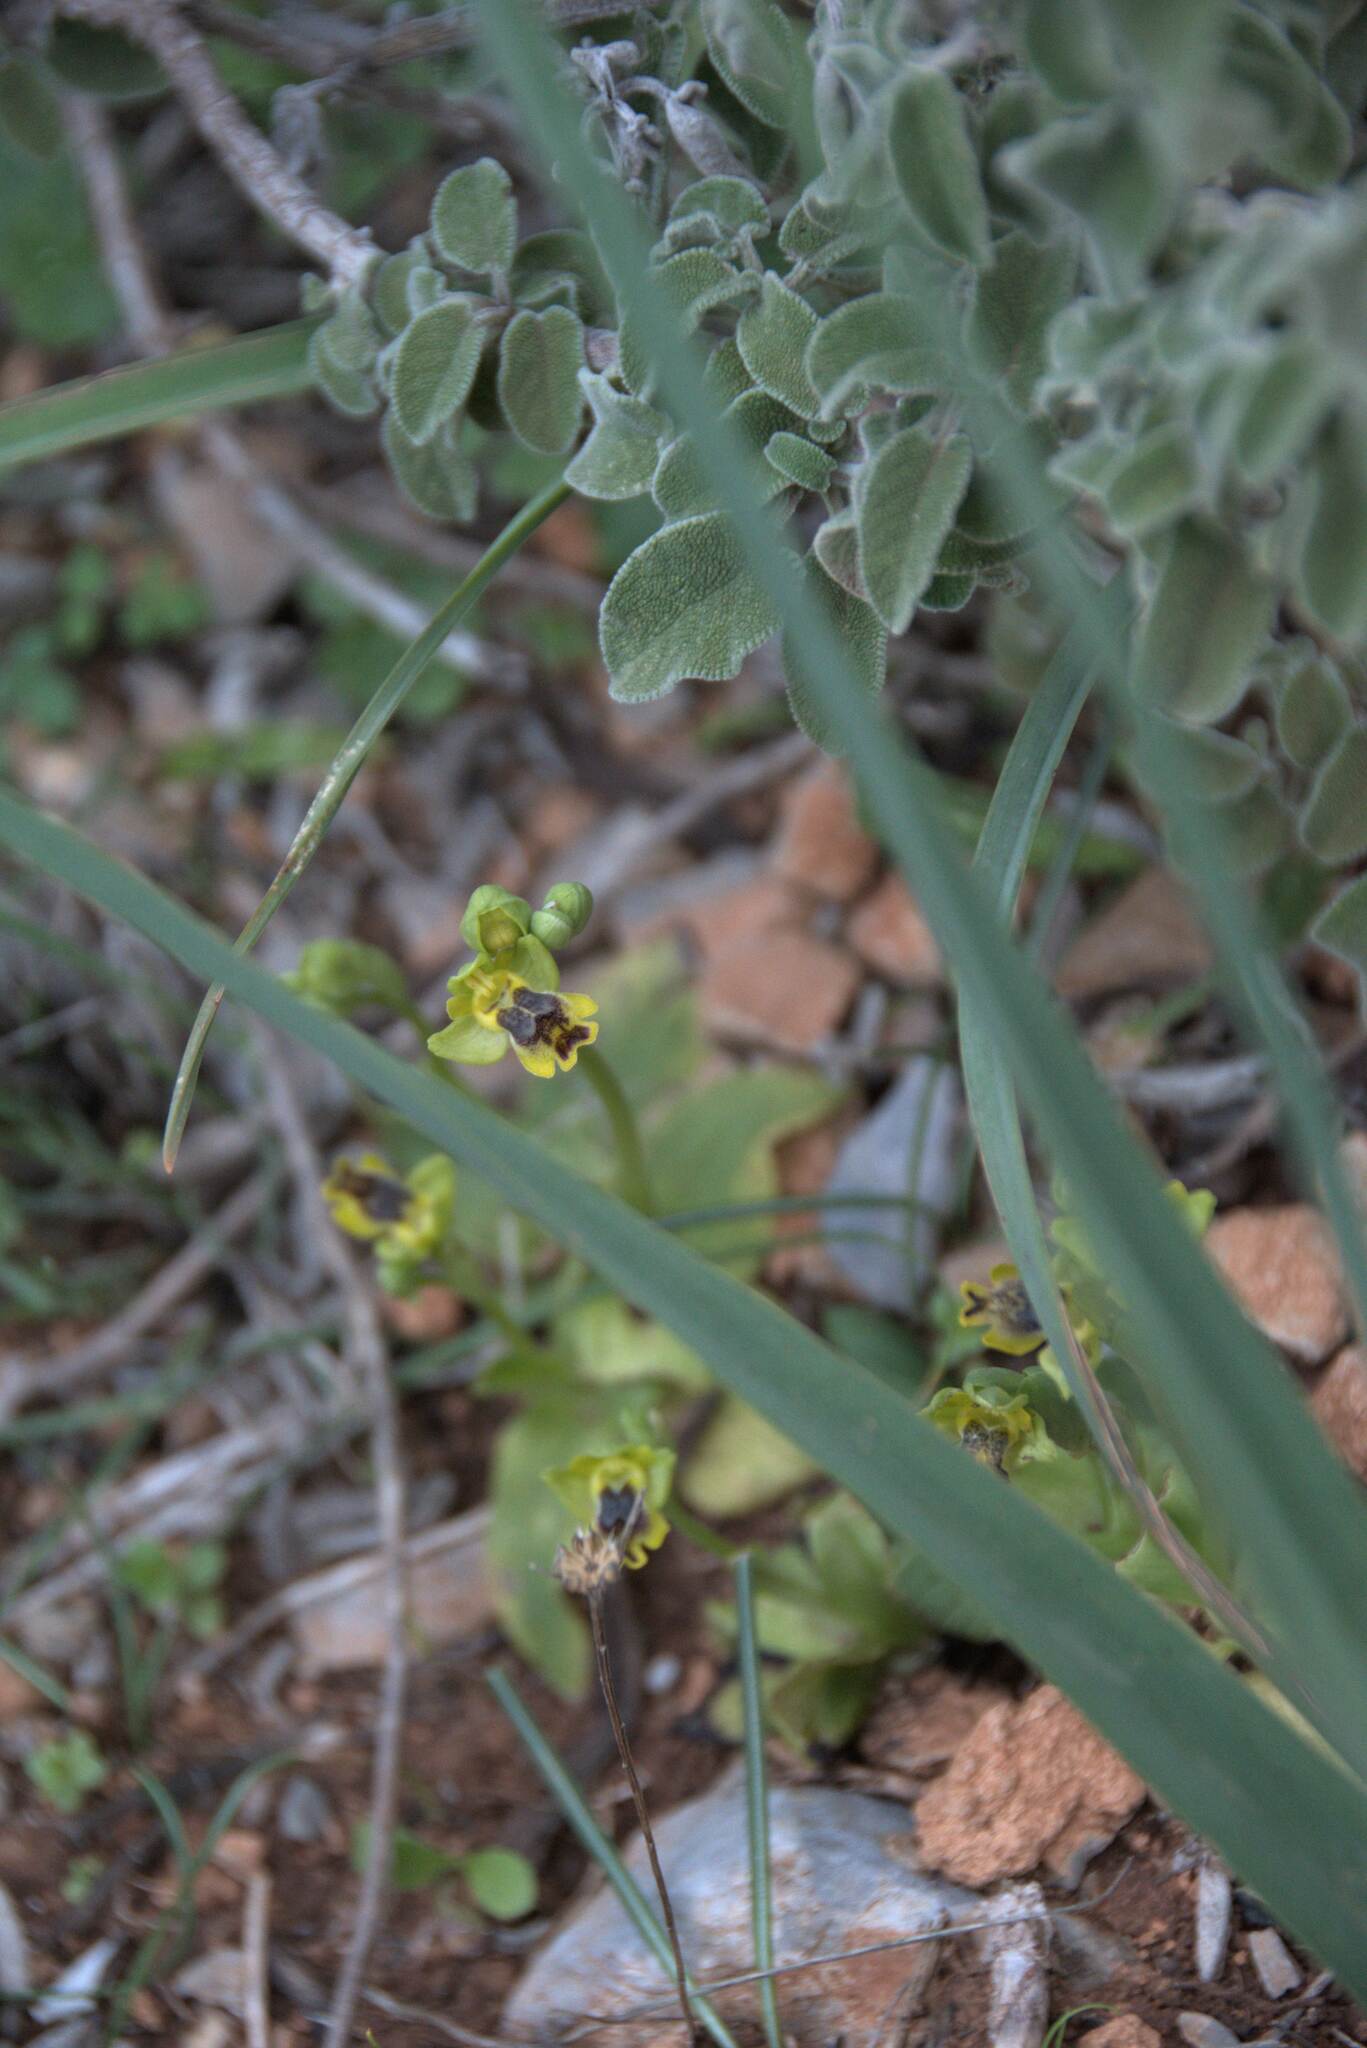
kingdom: Plantae
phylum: Tracheophyta
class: Liliopsida
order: Asparagales
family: Orchidaceae
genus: Ophrys
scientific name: Ophrys lutea
